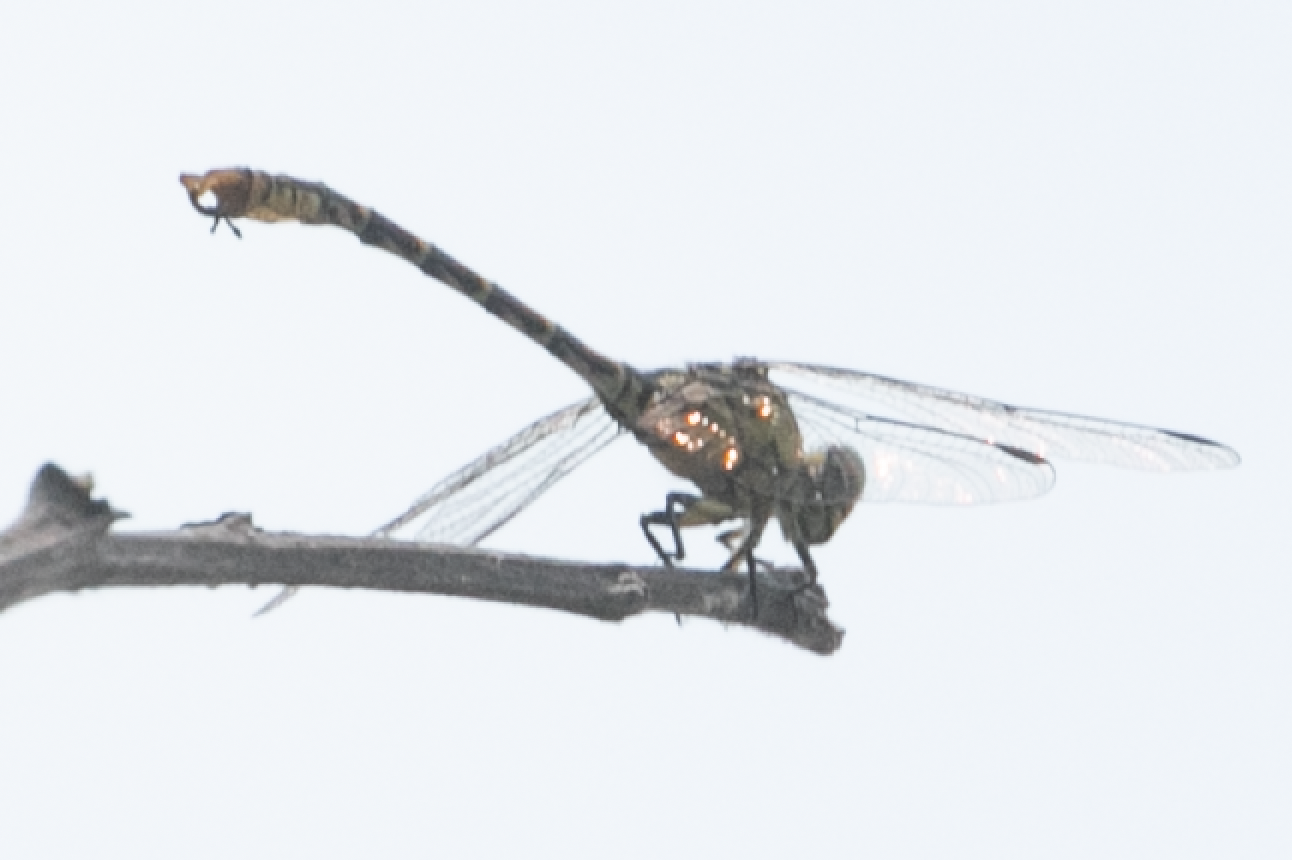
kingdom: Animalia
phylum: Arthropoda
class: Insecta
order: Odonata
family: Gomphidae
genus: Onychogomphus
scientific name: Onychogomphus forcipatus
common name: Small pincertail
